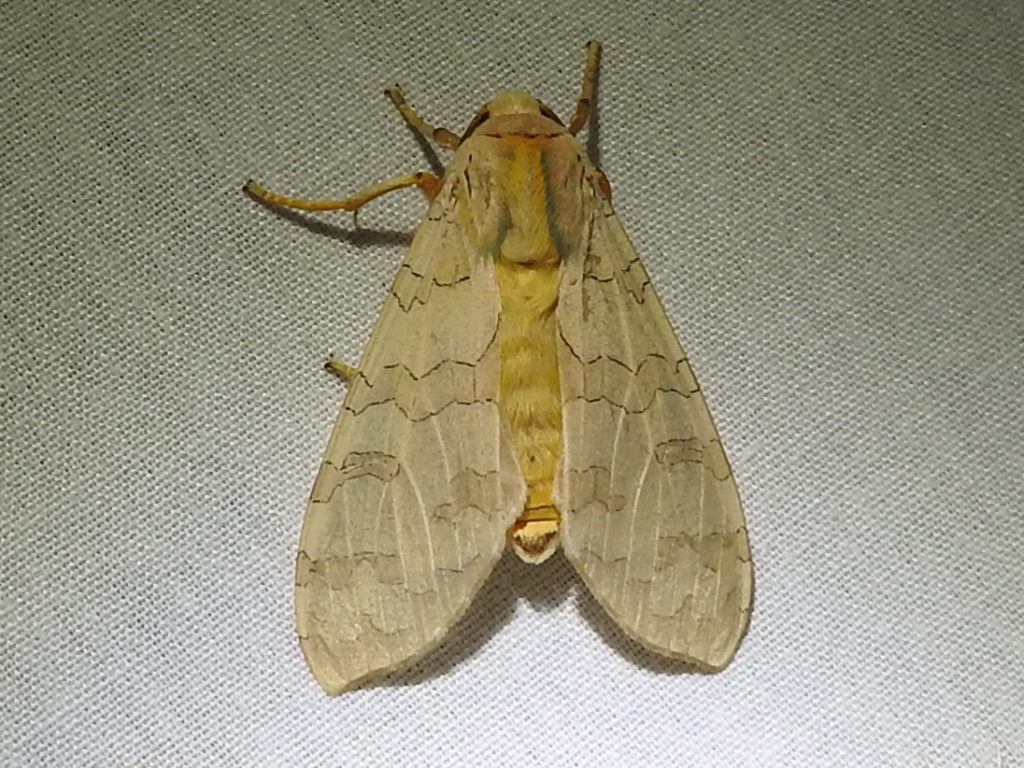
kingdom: Animalia
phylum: Arthropoda
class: Insecta
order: Lepidoptera
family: Erebidae
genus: Halysidota
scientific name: Halysidota tessellaris
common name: Banded tussock moth
